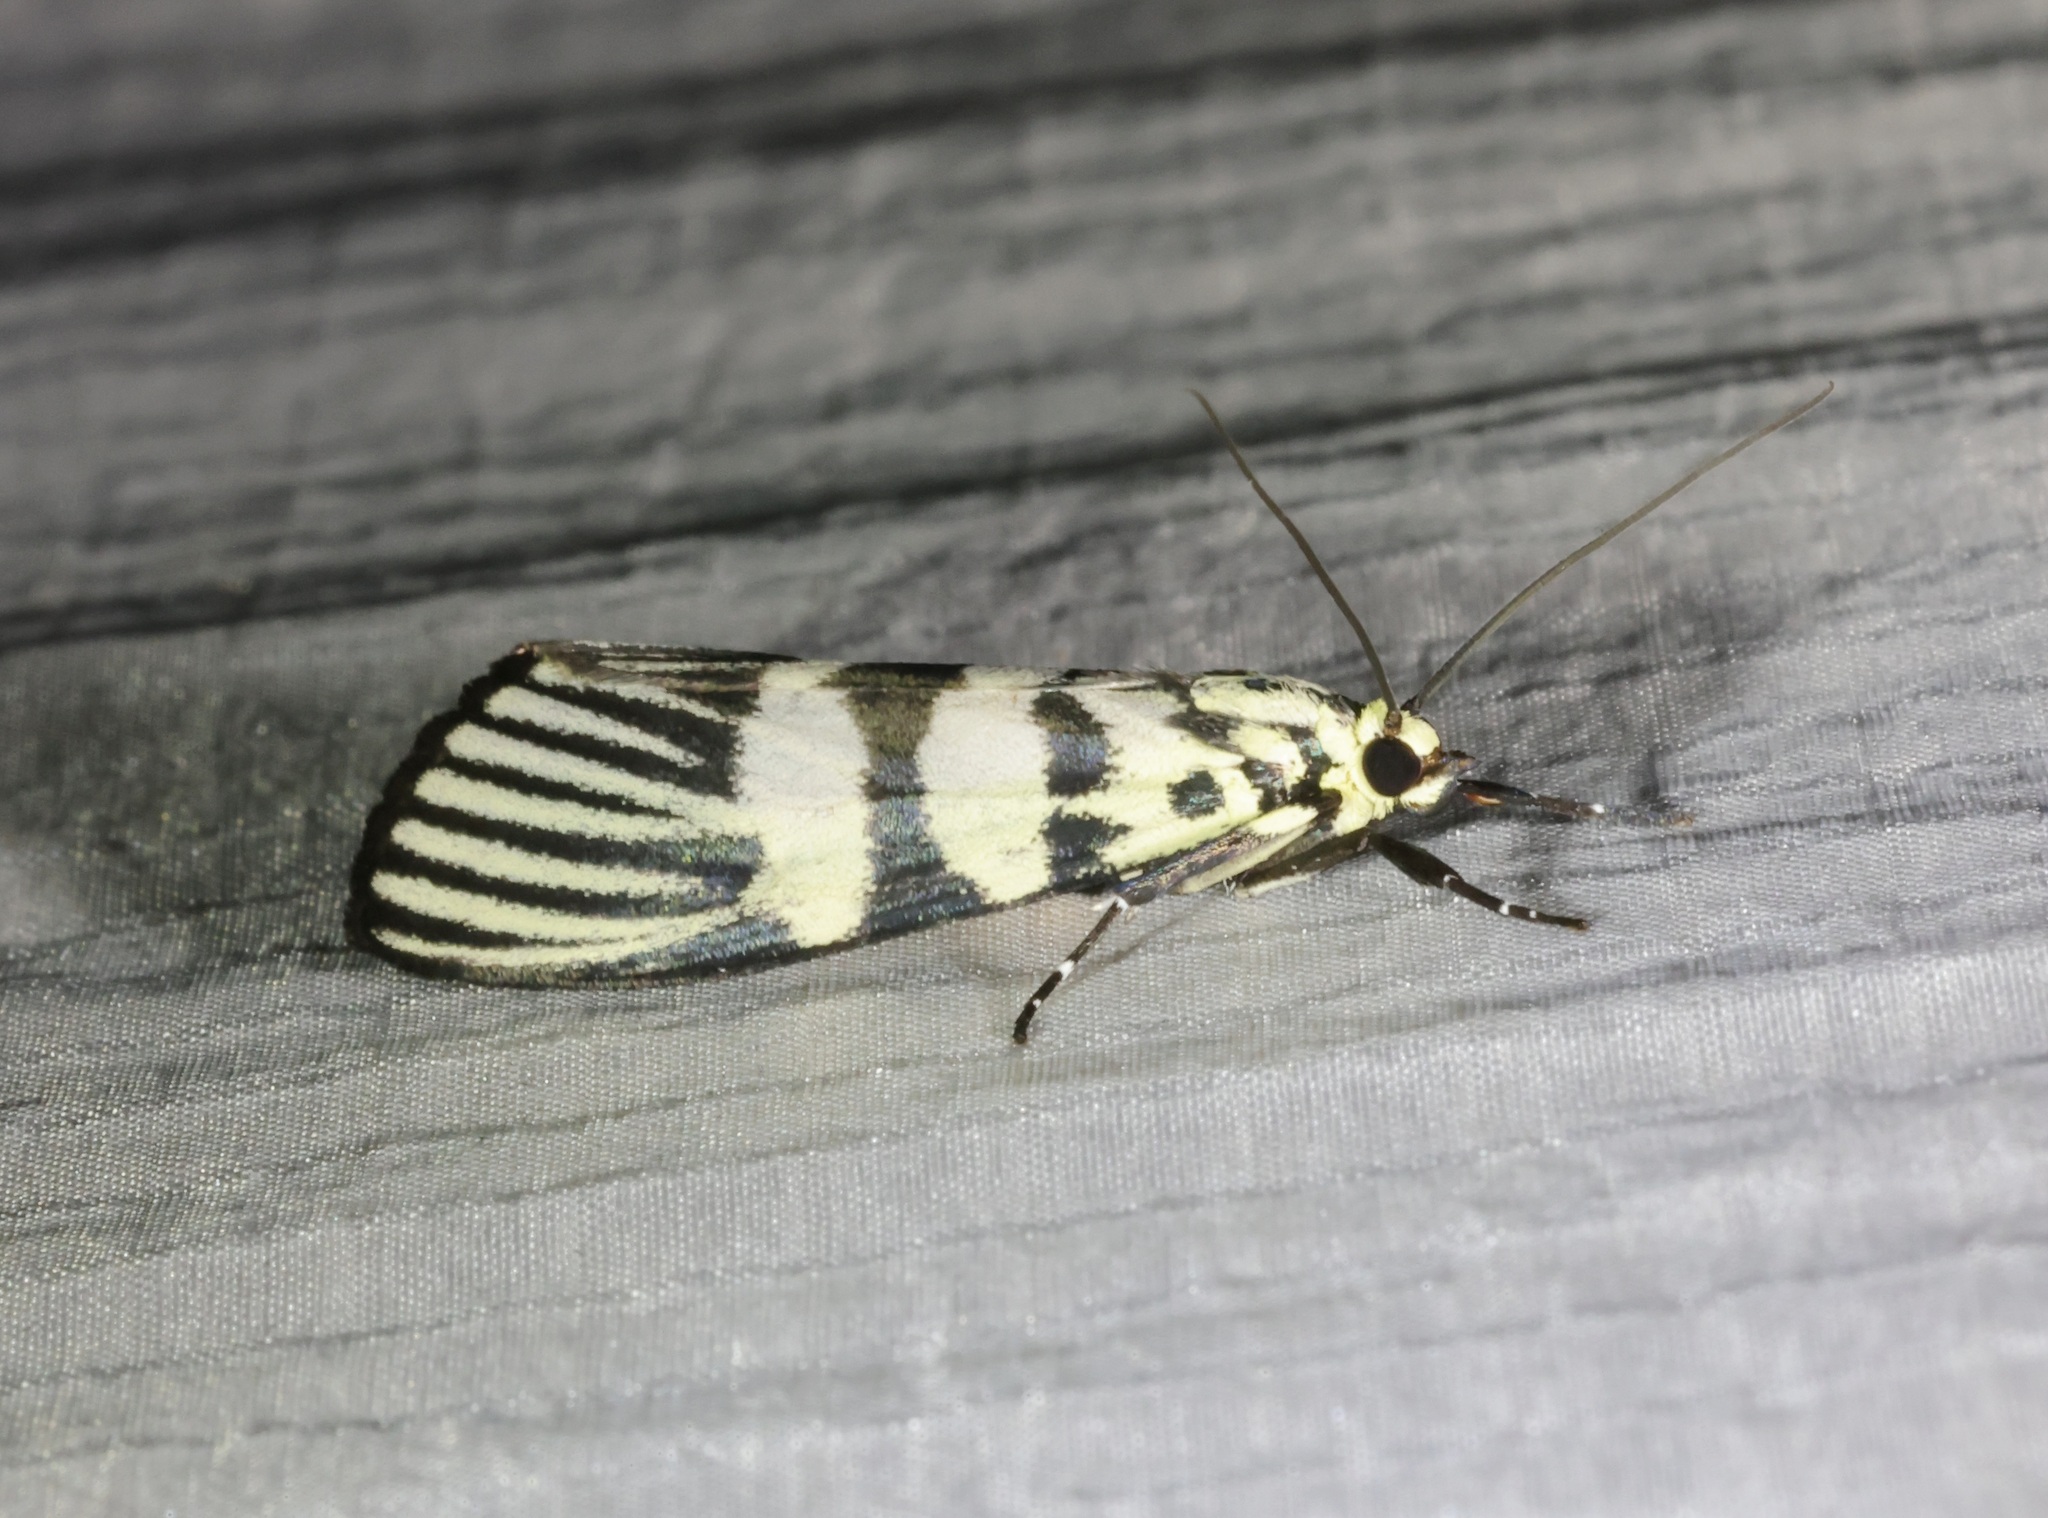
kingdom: Animalia
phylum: Arthropoda
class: Insecta
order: Lepidoptera
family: Crambidae
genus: Heortia
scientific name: Heortia vitessoides
